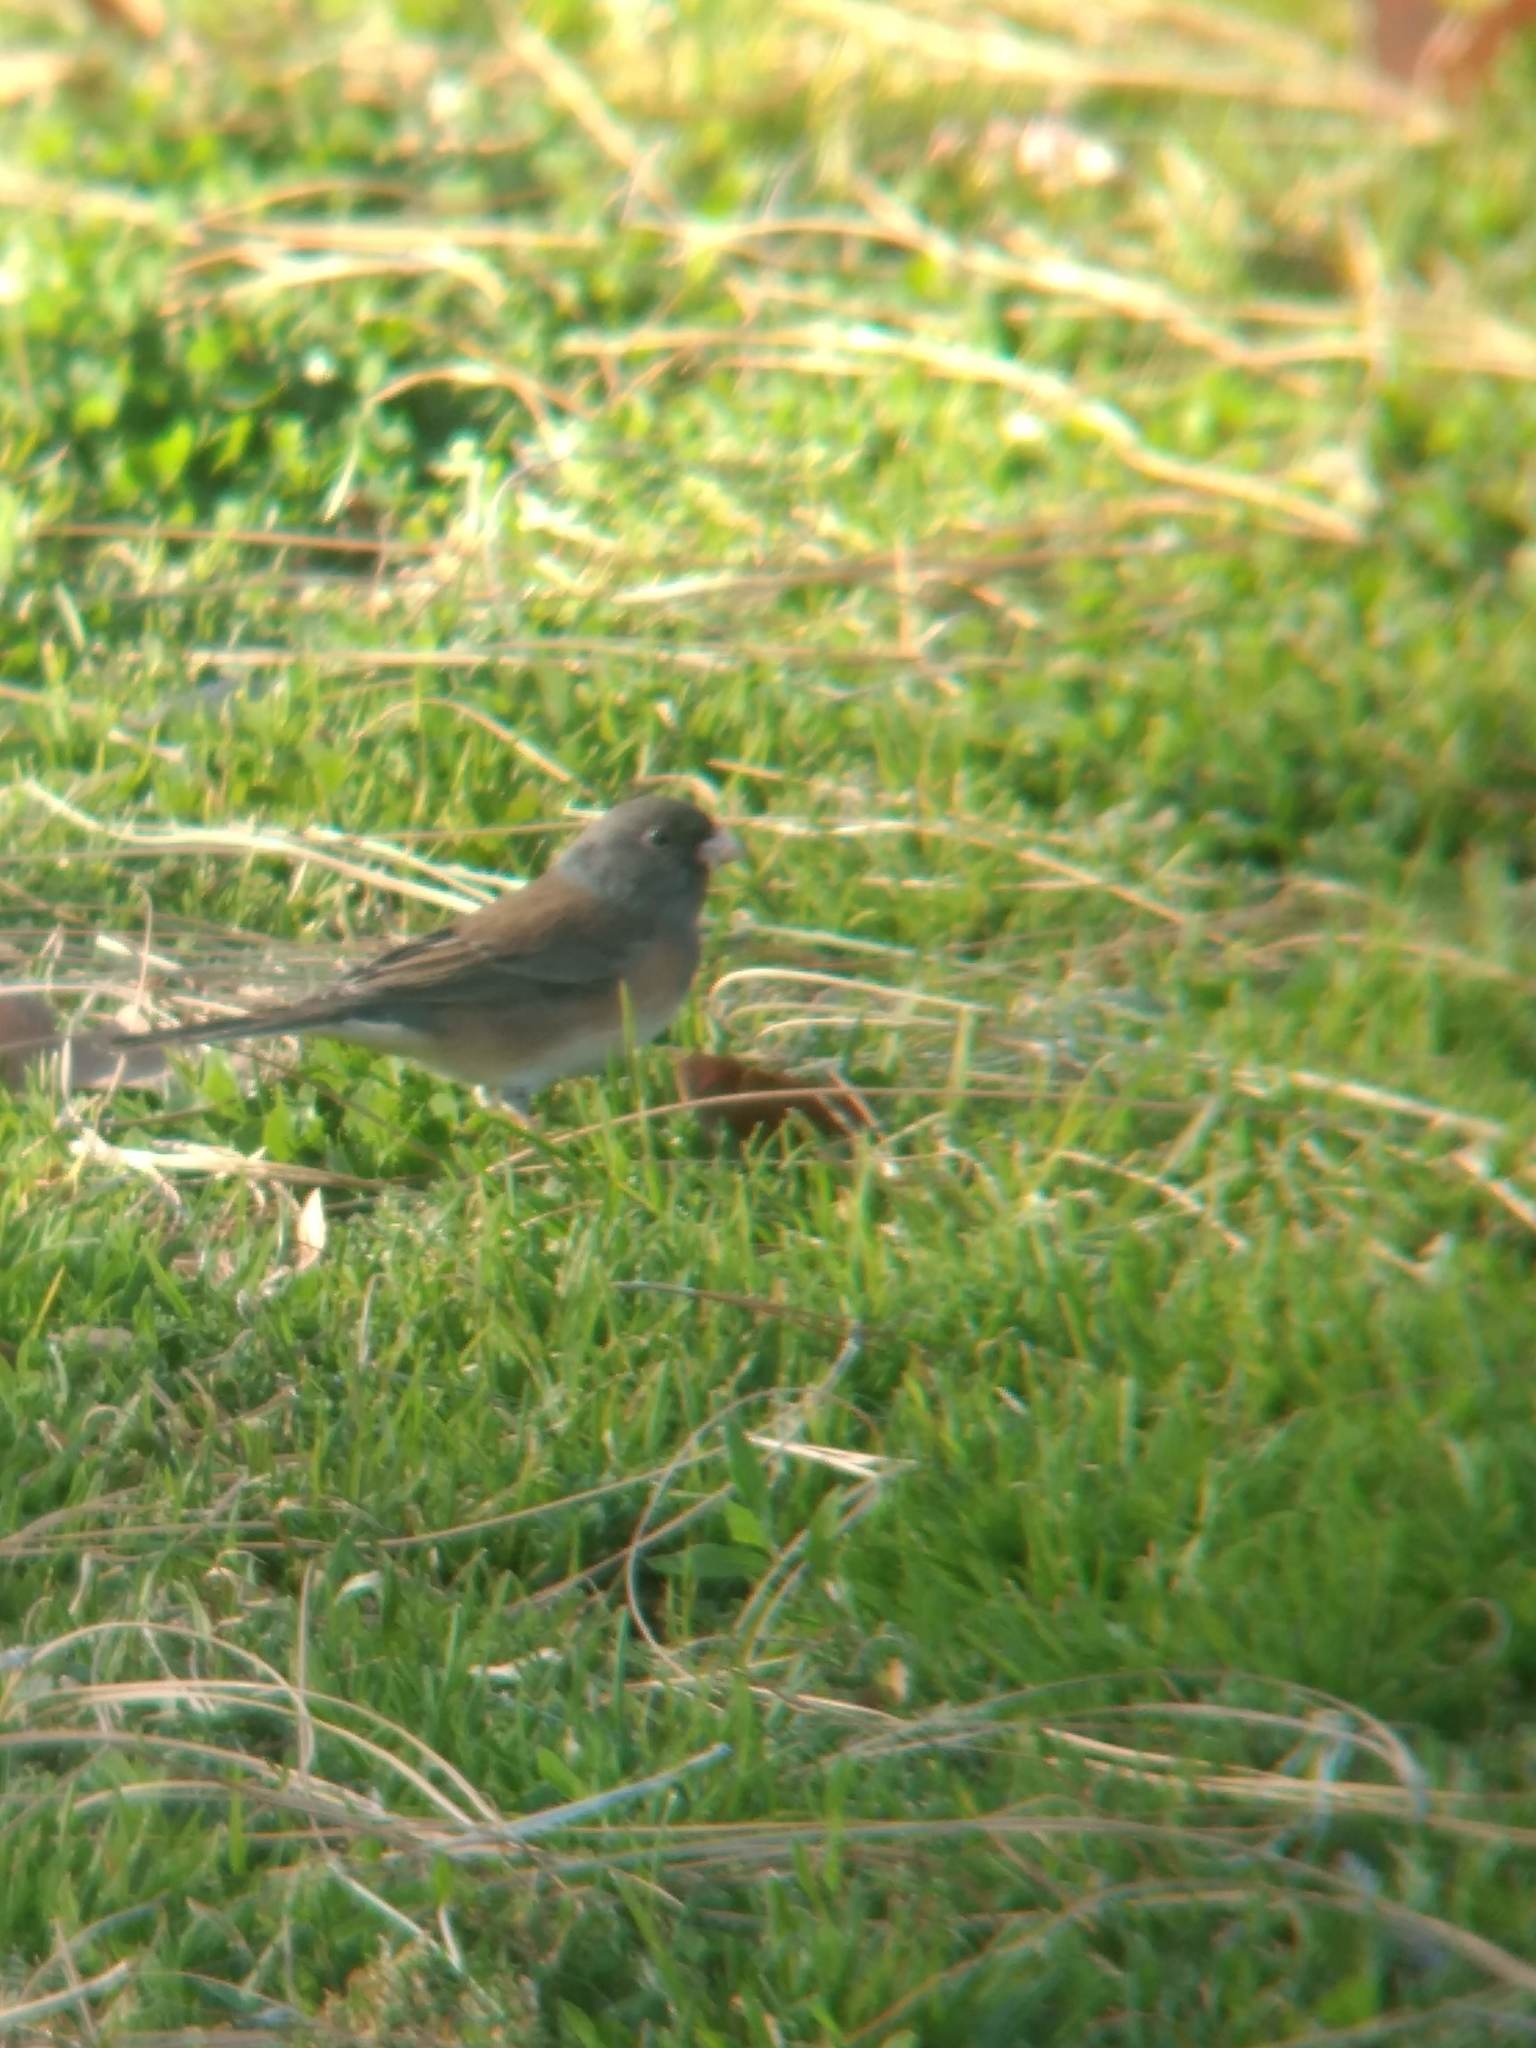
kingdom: Animalia
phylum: Chordata
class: Aves
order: Passeriformes
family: Passerellidae
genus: Junco
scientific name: Junco hyemalis
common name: Dark-eyed junco
